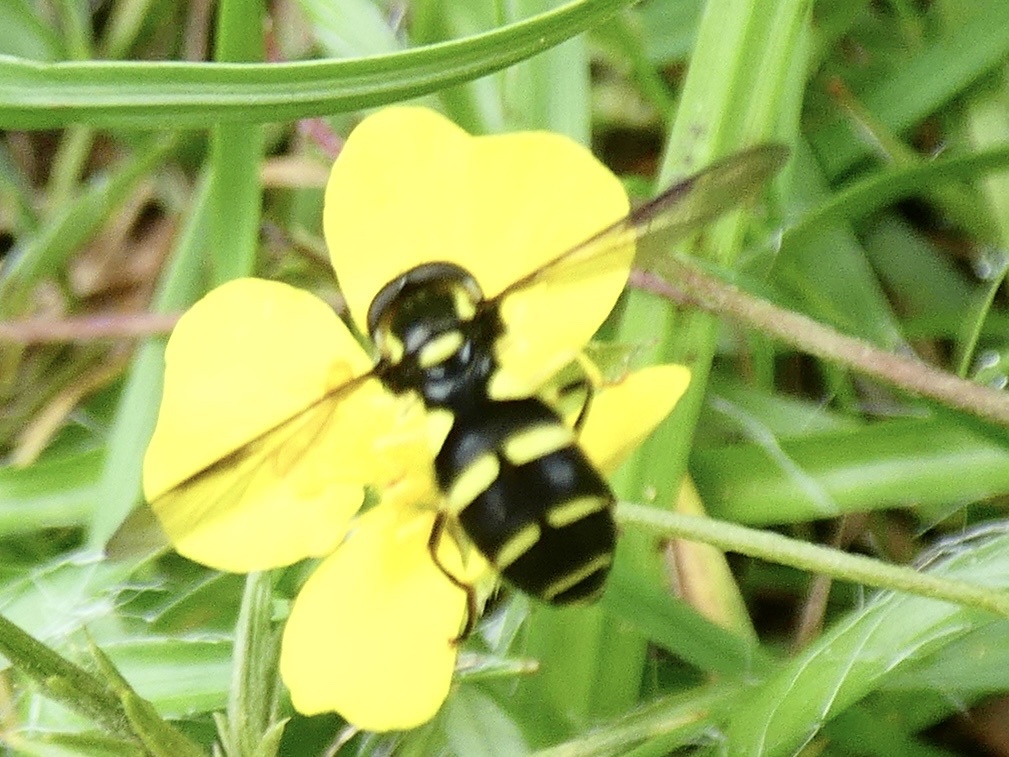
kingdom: Animalia
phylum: Arthropoda
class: Insecta
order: Diptera
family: Syrphidae
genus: Philhelius
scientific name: Philhelius pedissequum
